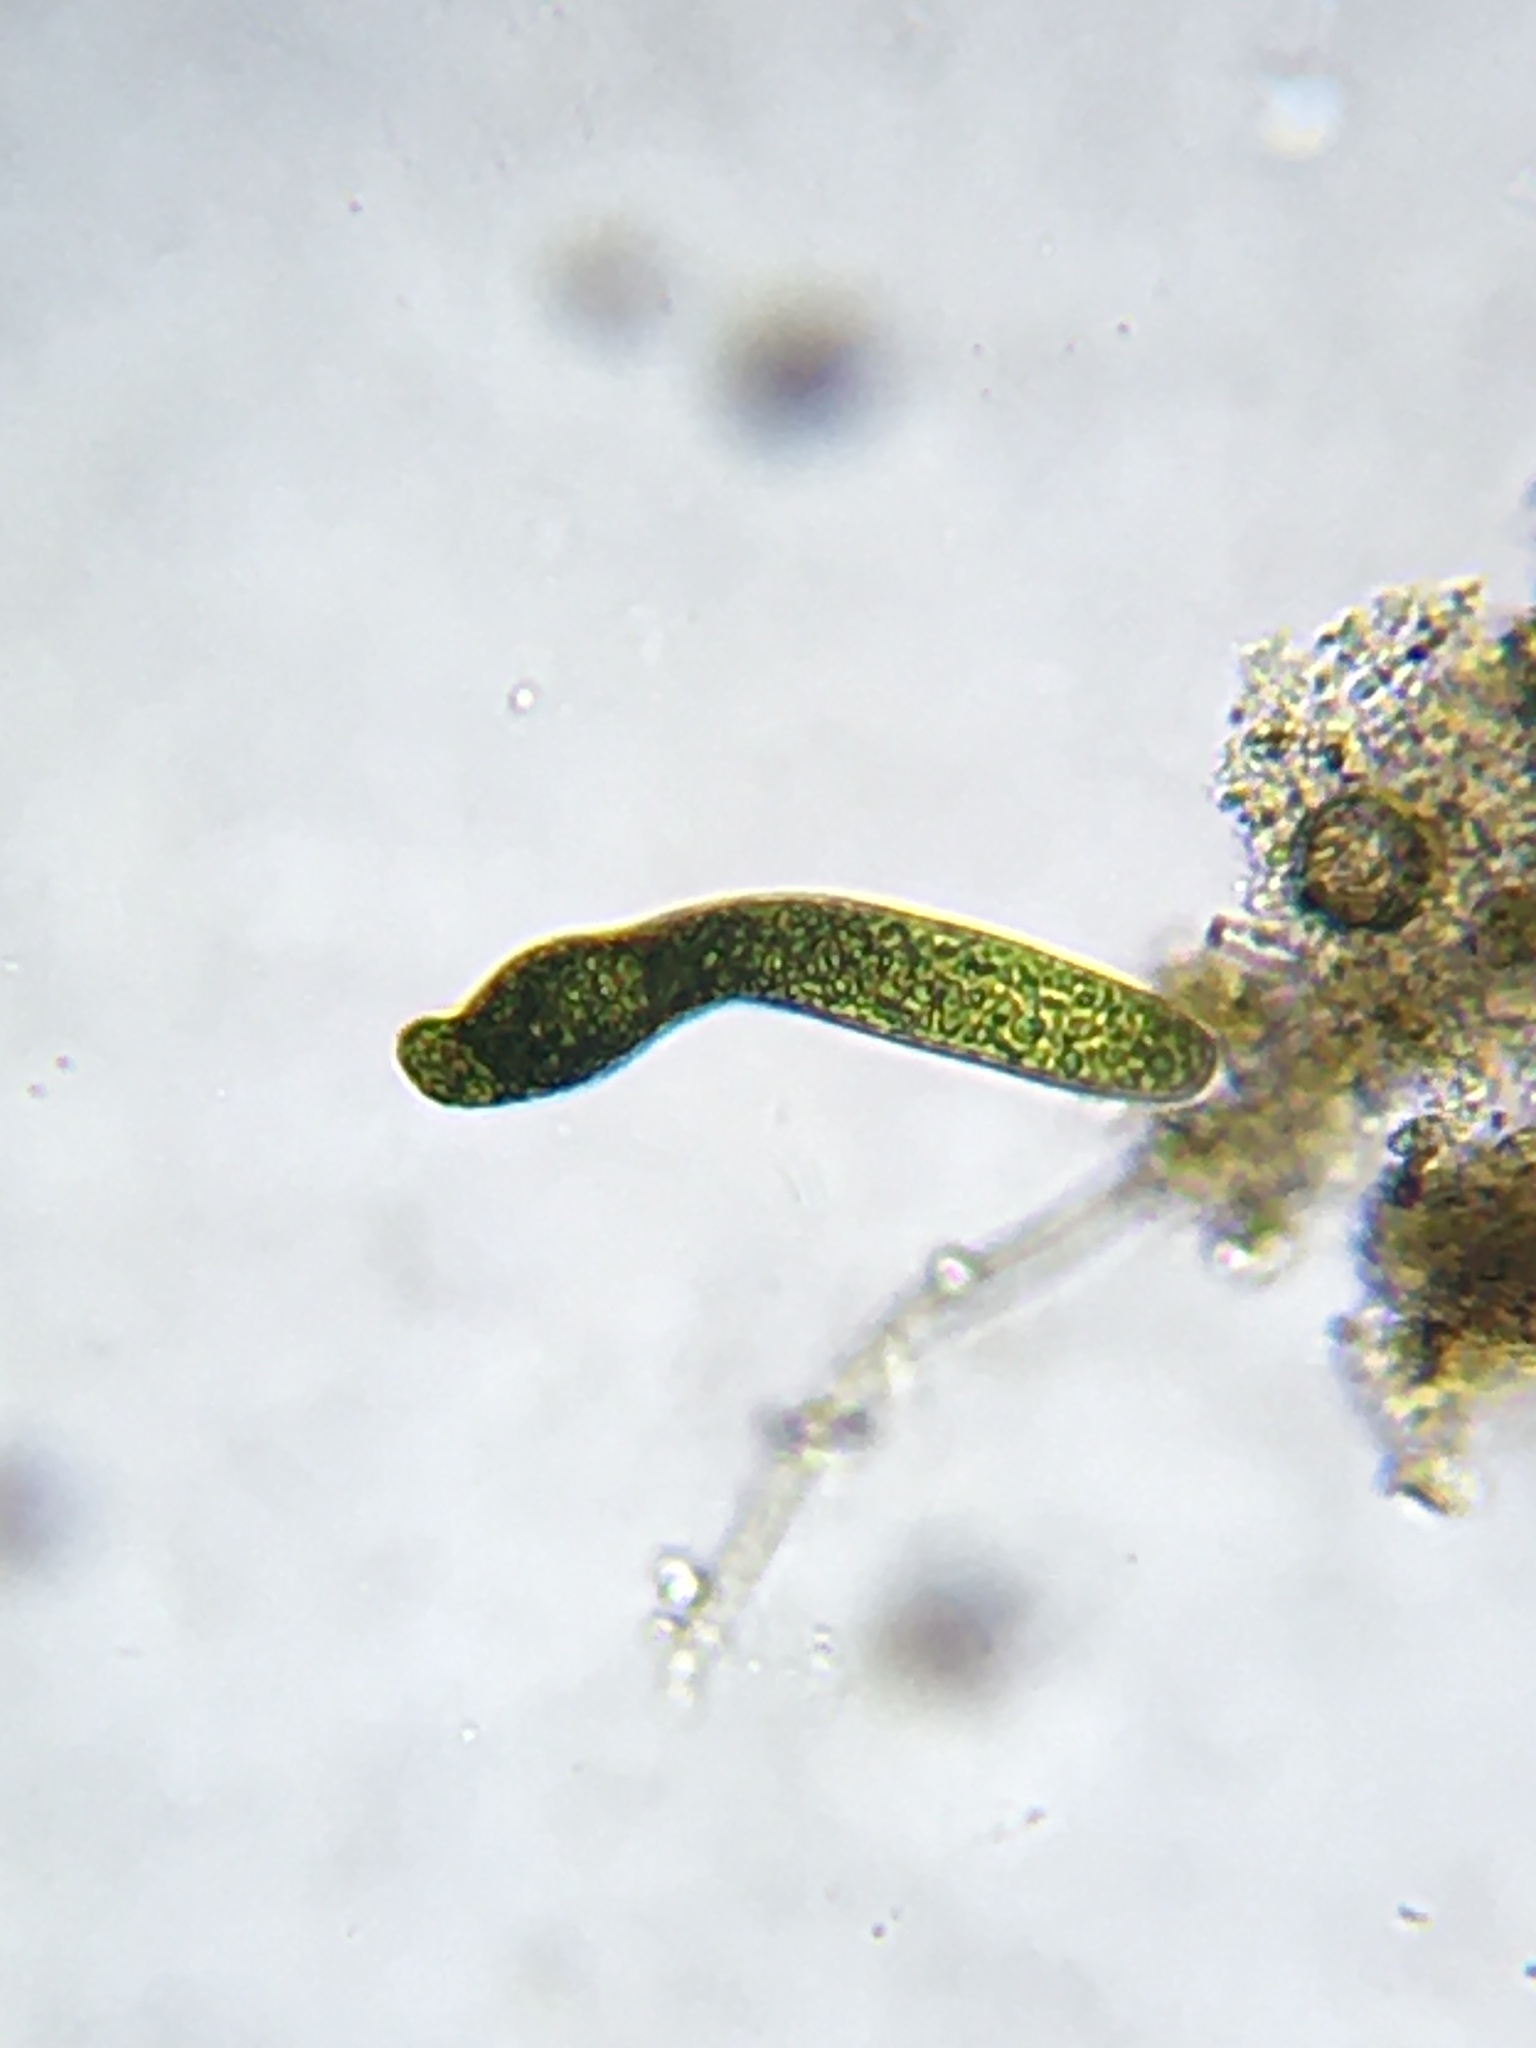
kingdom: Protozoa
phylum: Euglenozoa
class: Euglenoidea
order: Euglenida
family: Euglenaceae
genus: Euglena
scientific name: Euglena ehrenbergii
